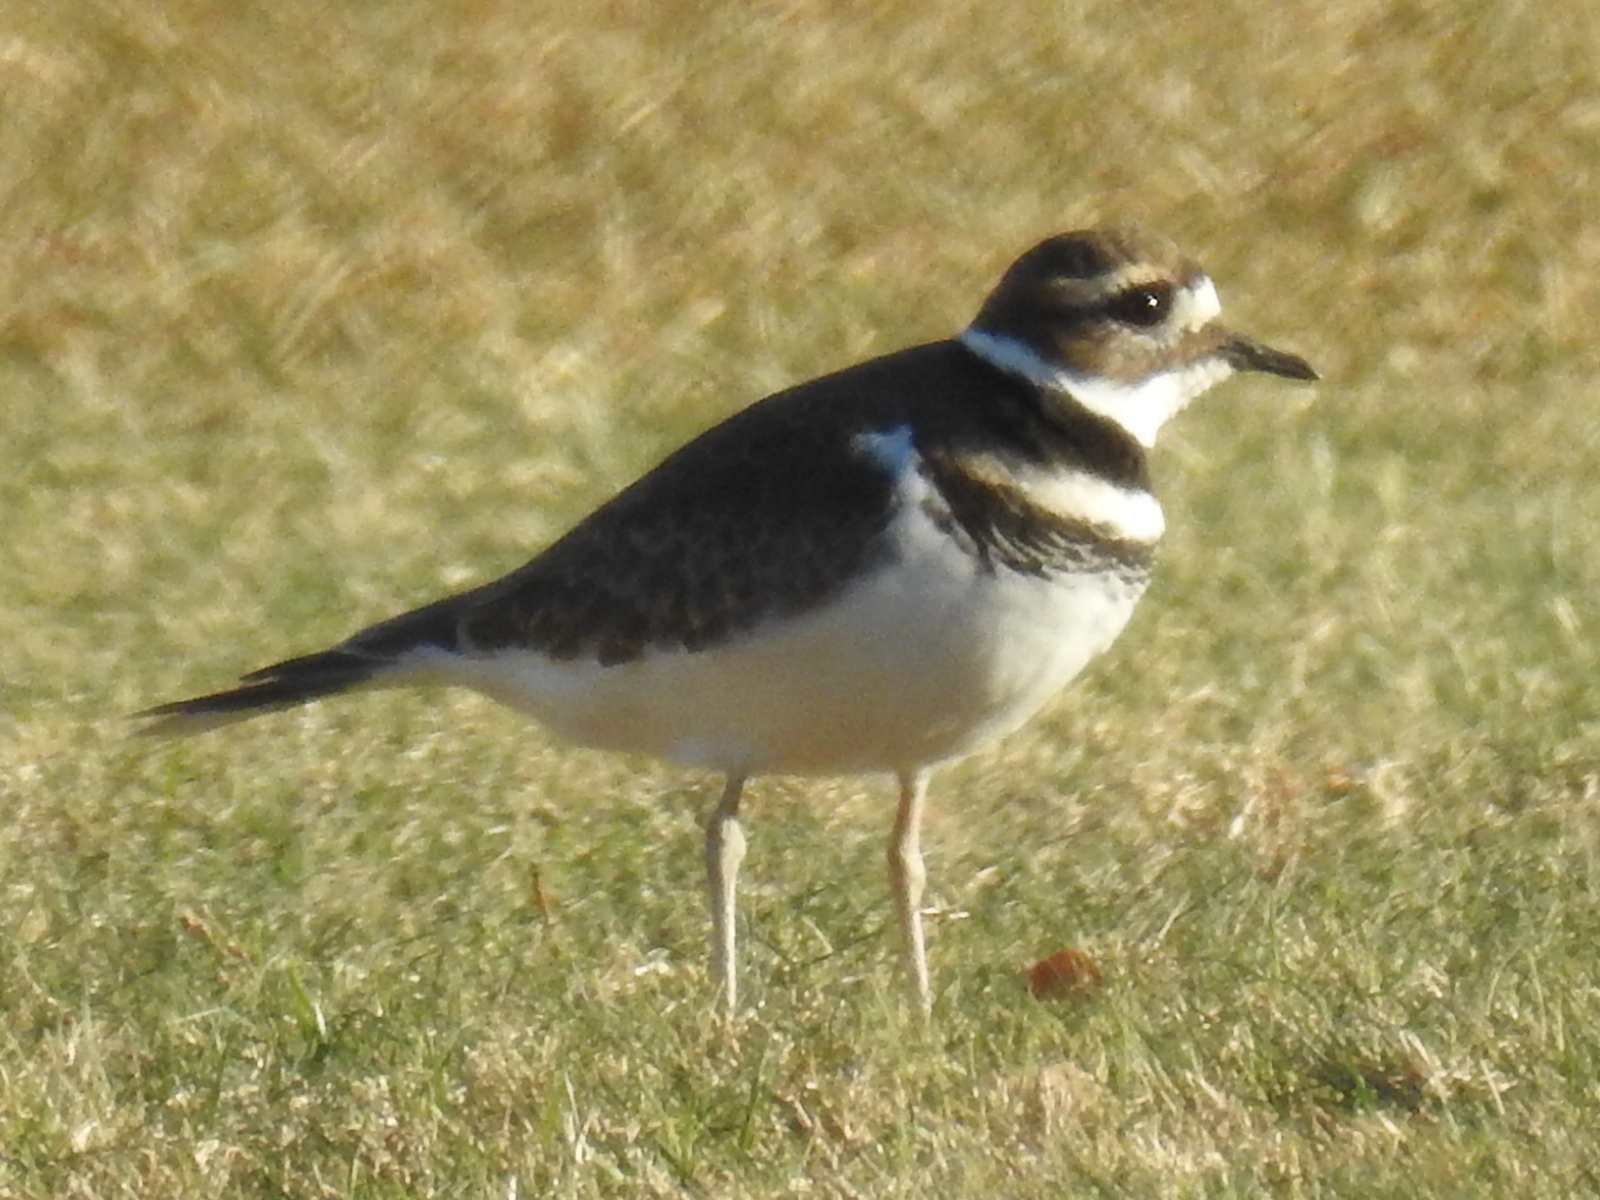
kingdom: Animalia
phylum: Chordata
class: Aves
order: Charadriiformes
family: Charadriidae
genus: Charadrius
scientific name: Charadrius vociferus
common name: Killdeer
